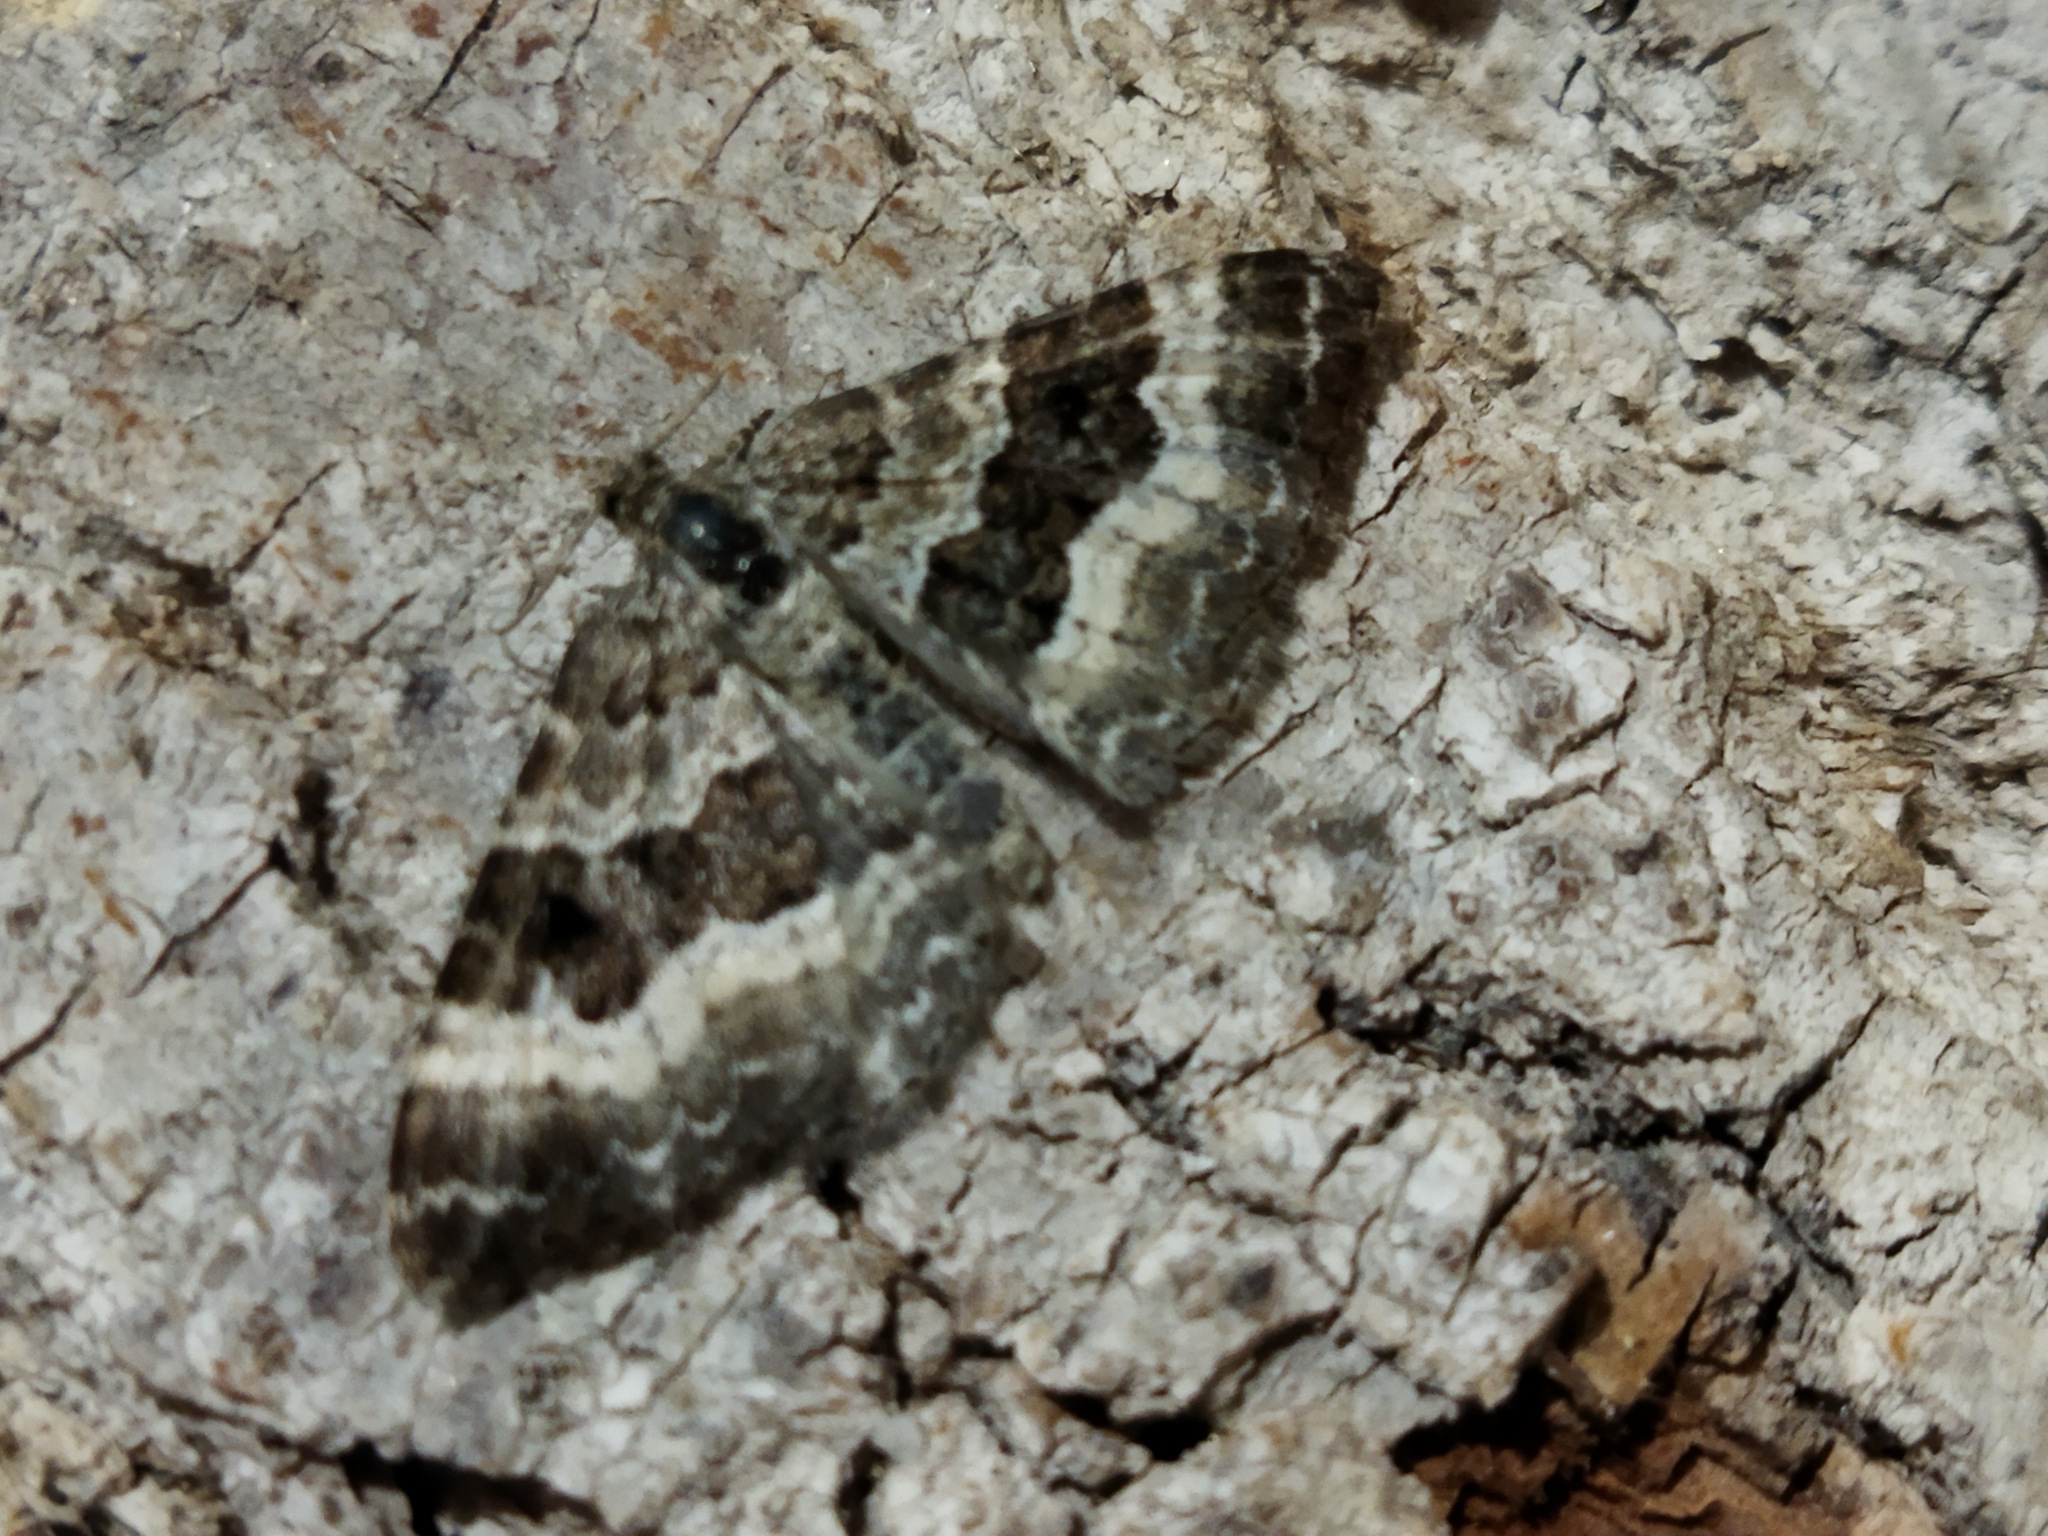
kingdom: Animalia
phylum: Arthropoda
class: Insecta
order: Lepidoptera
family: Geometridae
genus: Epirrhoe
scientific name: Epirrhoe alternata
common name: Common carpet
